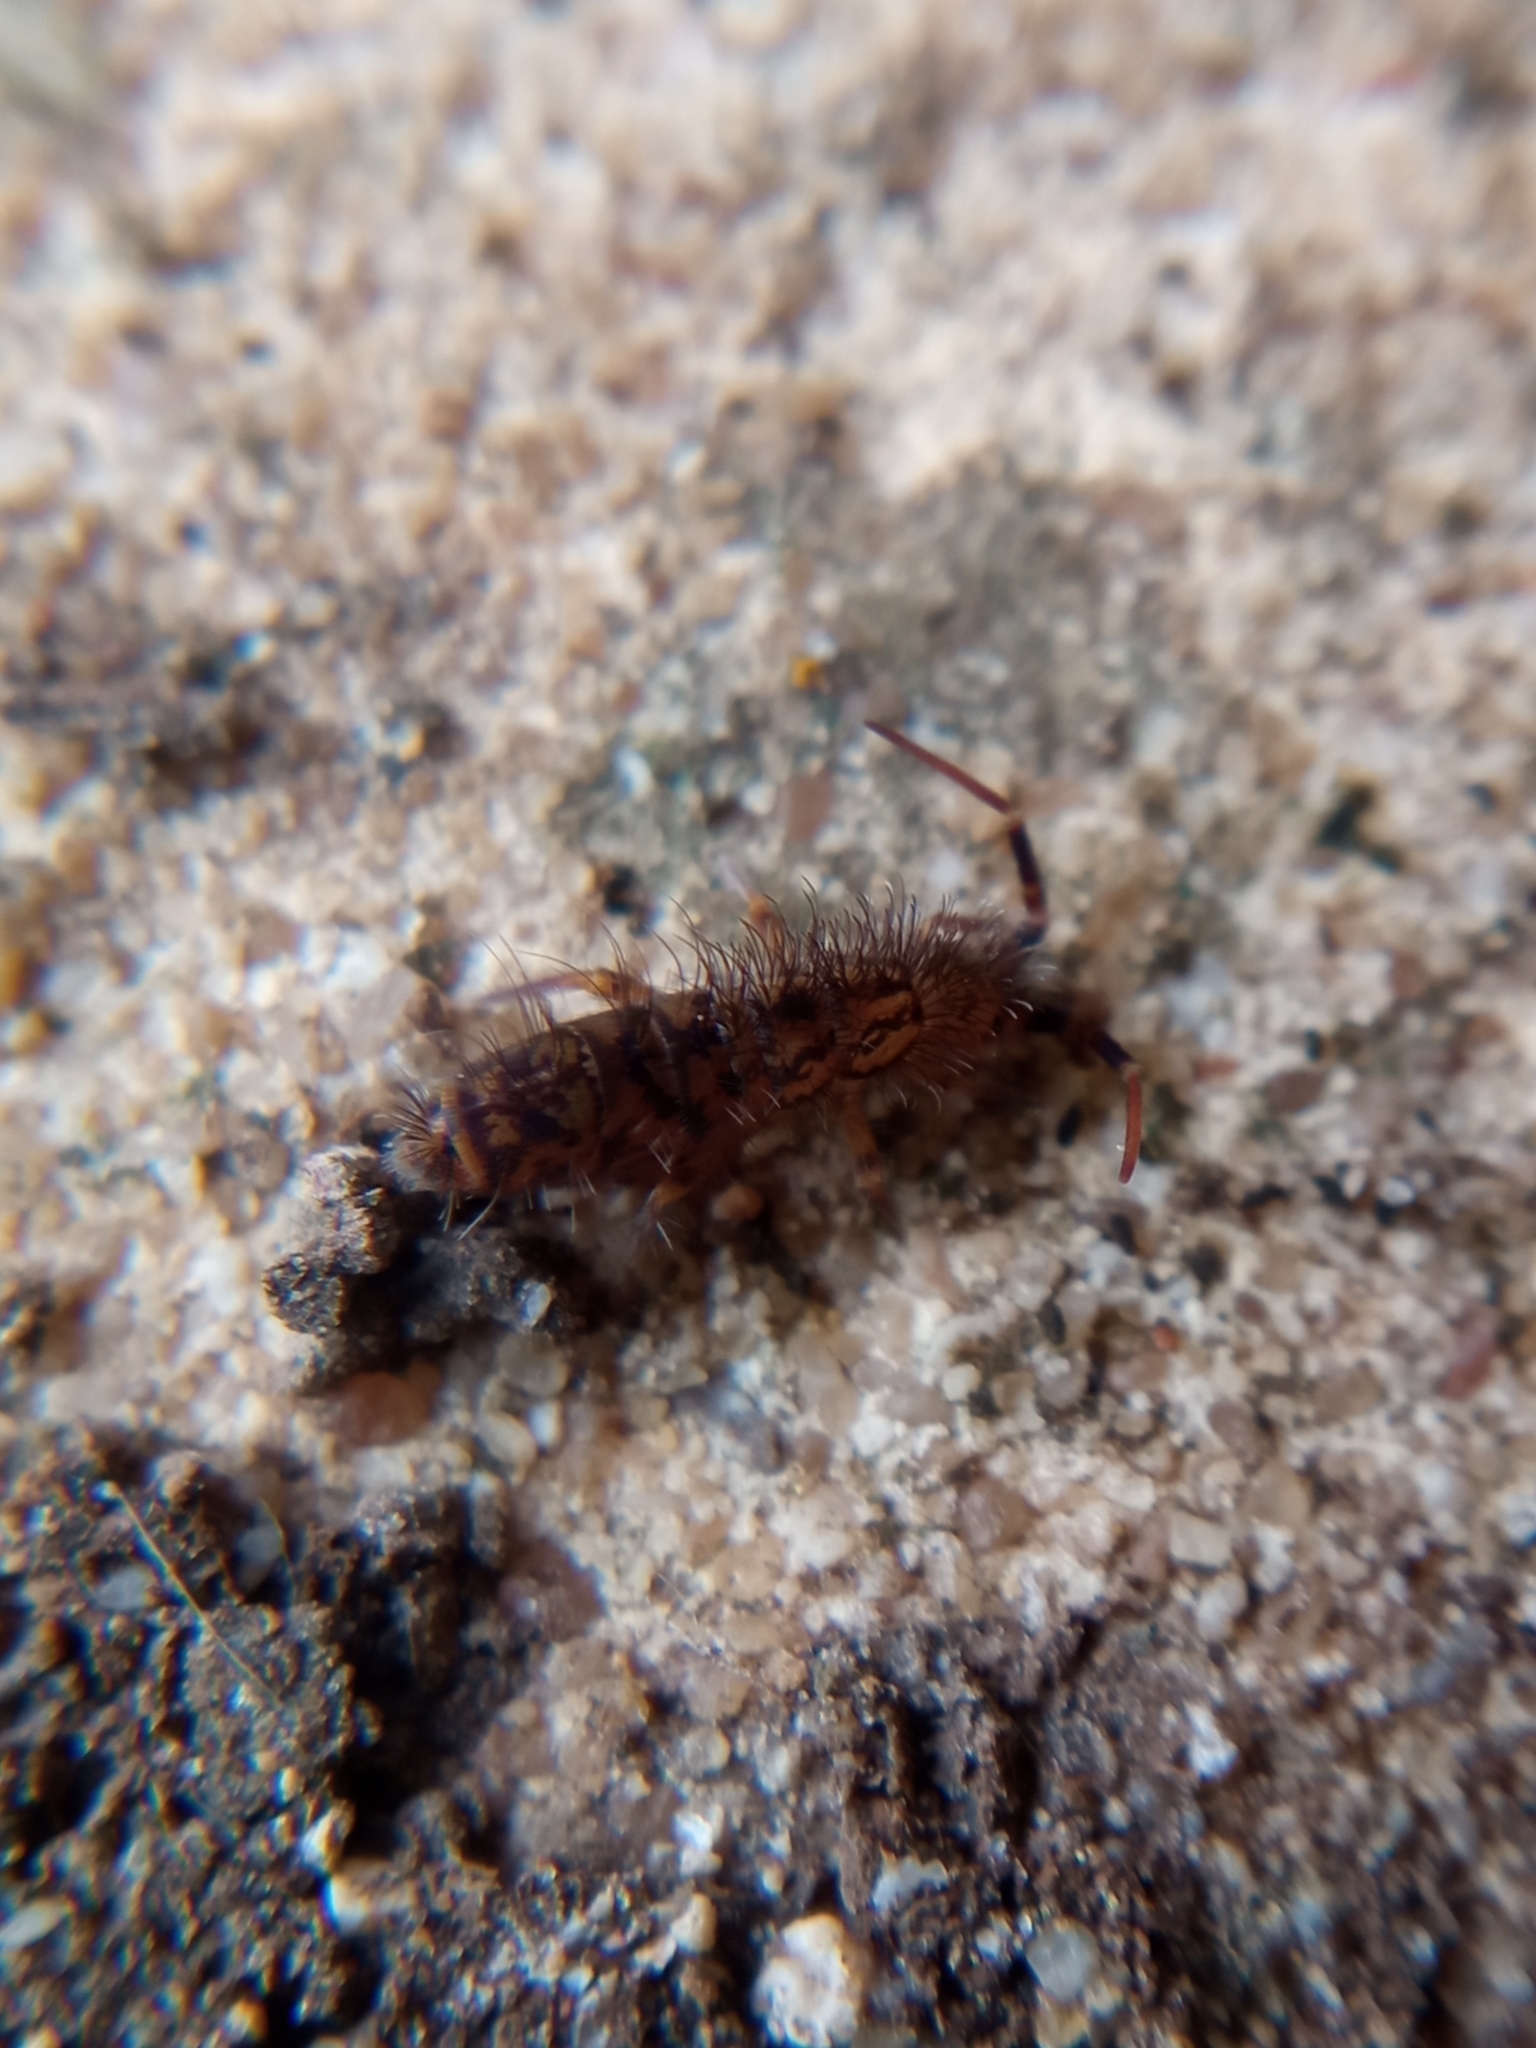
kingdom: Animalia
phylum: Arthropoda
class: Collembola
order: Entomobryomorpha
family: Orchesellidae
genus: Orchesella
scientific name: Orchesella villosa
